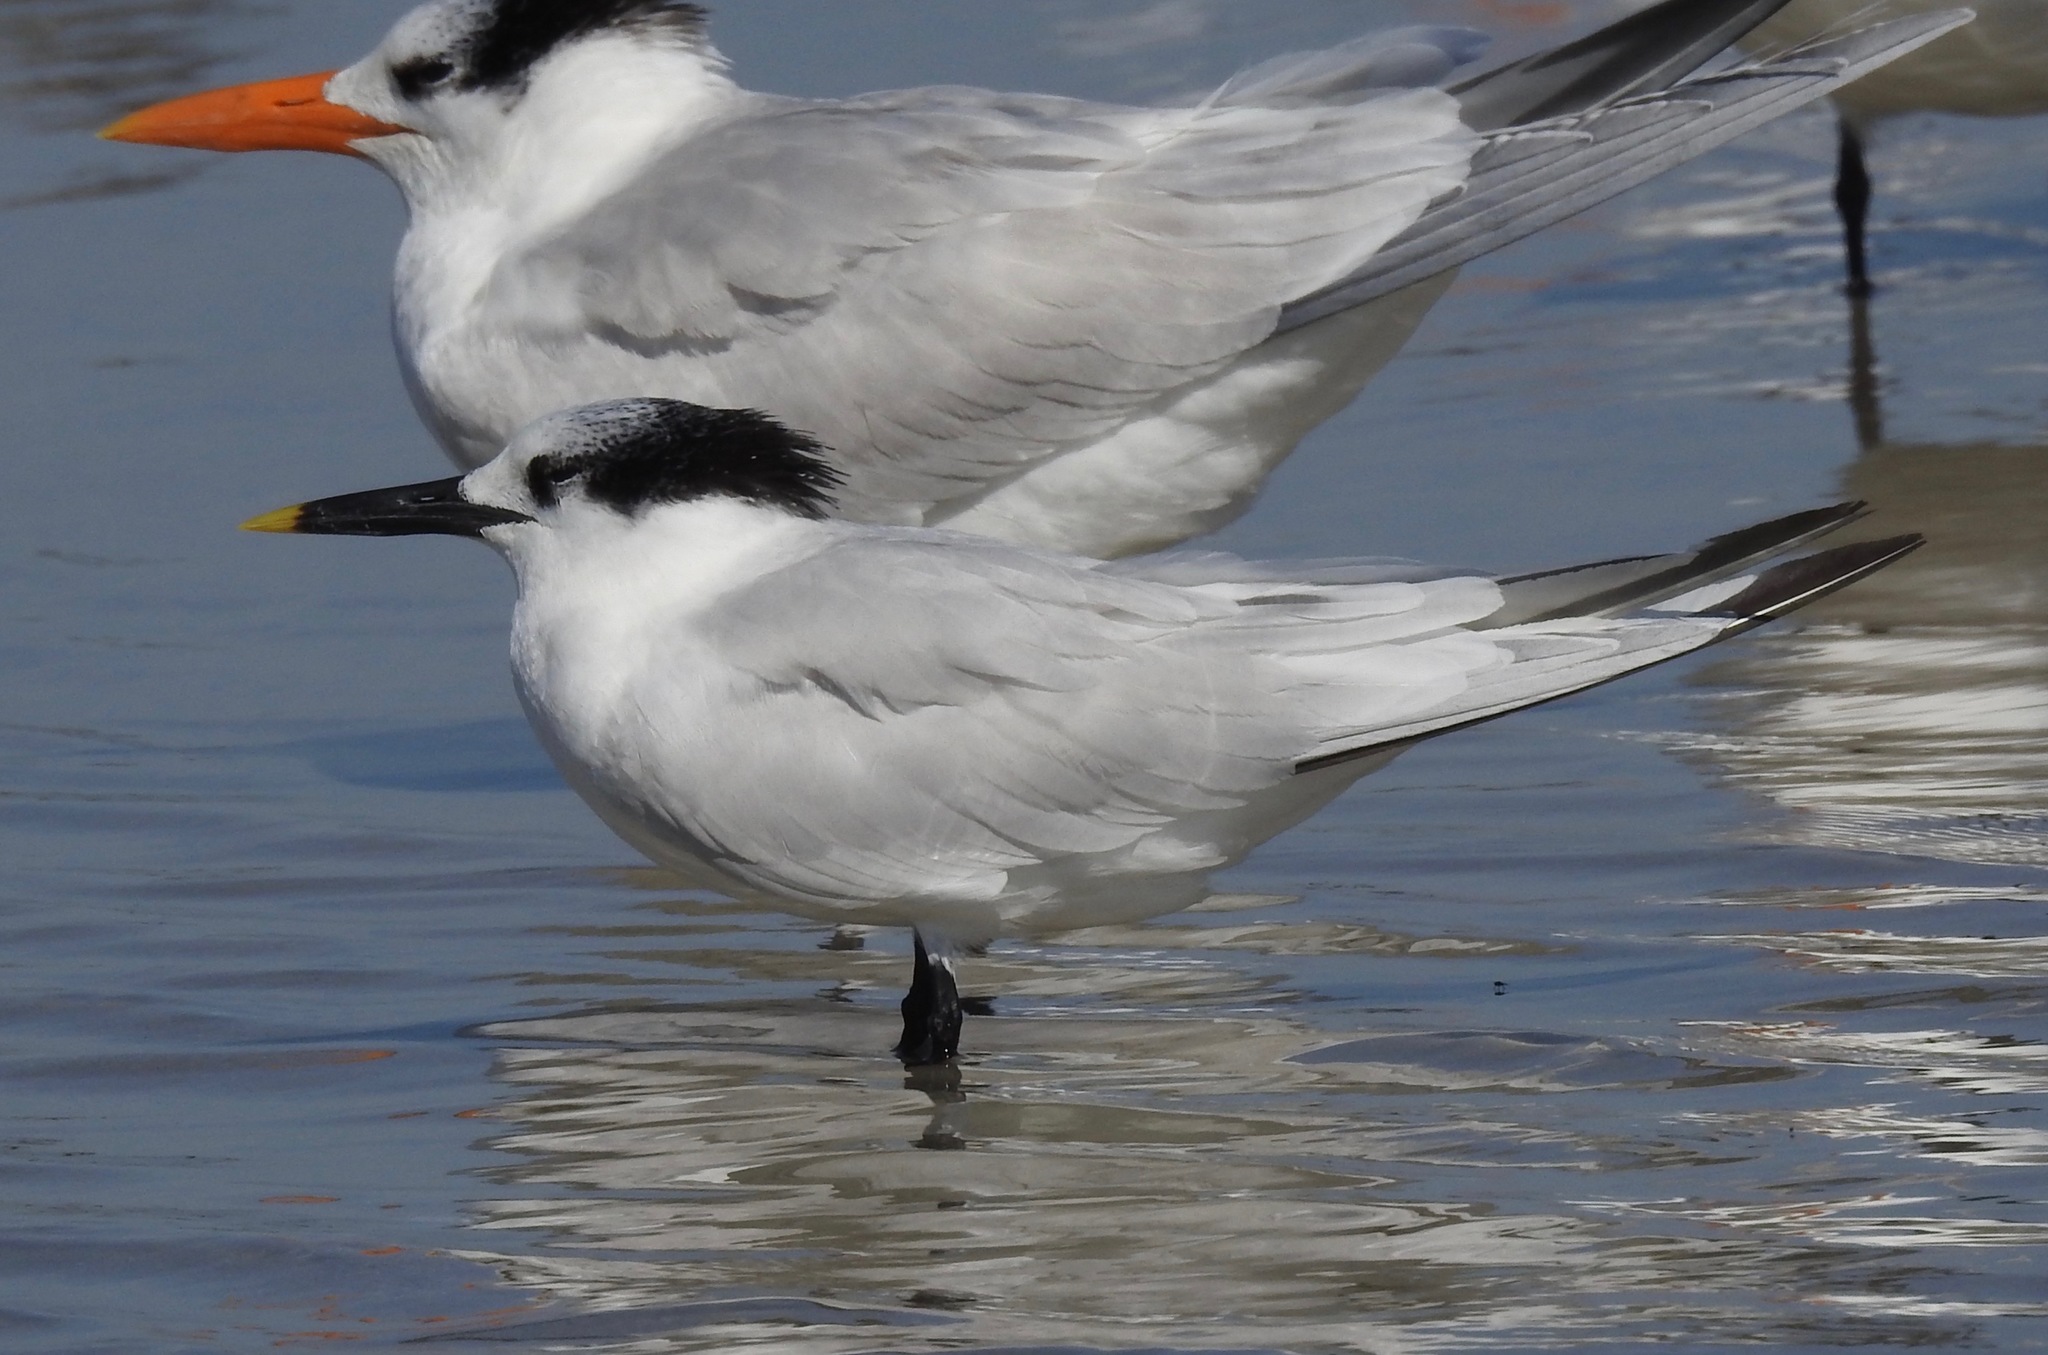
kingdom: Animalia
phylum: Chordata
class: Aves
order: Charadriiformes
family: Laridae
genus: Thalasseus
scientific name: Thalasseus sandvicensis
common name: Sandwich tern
